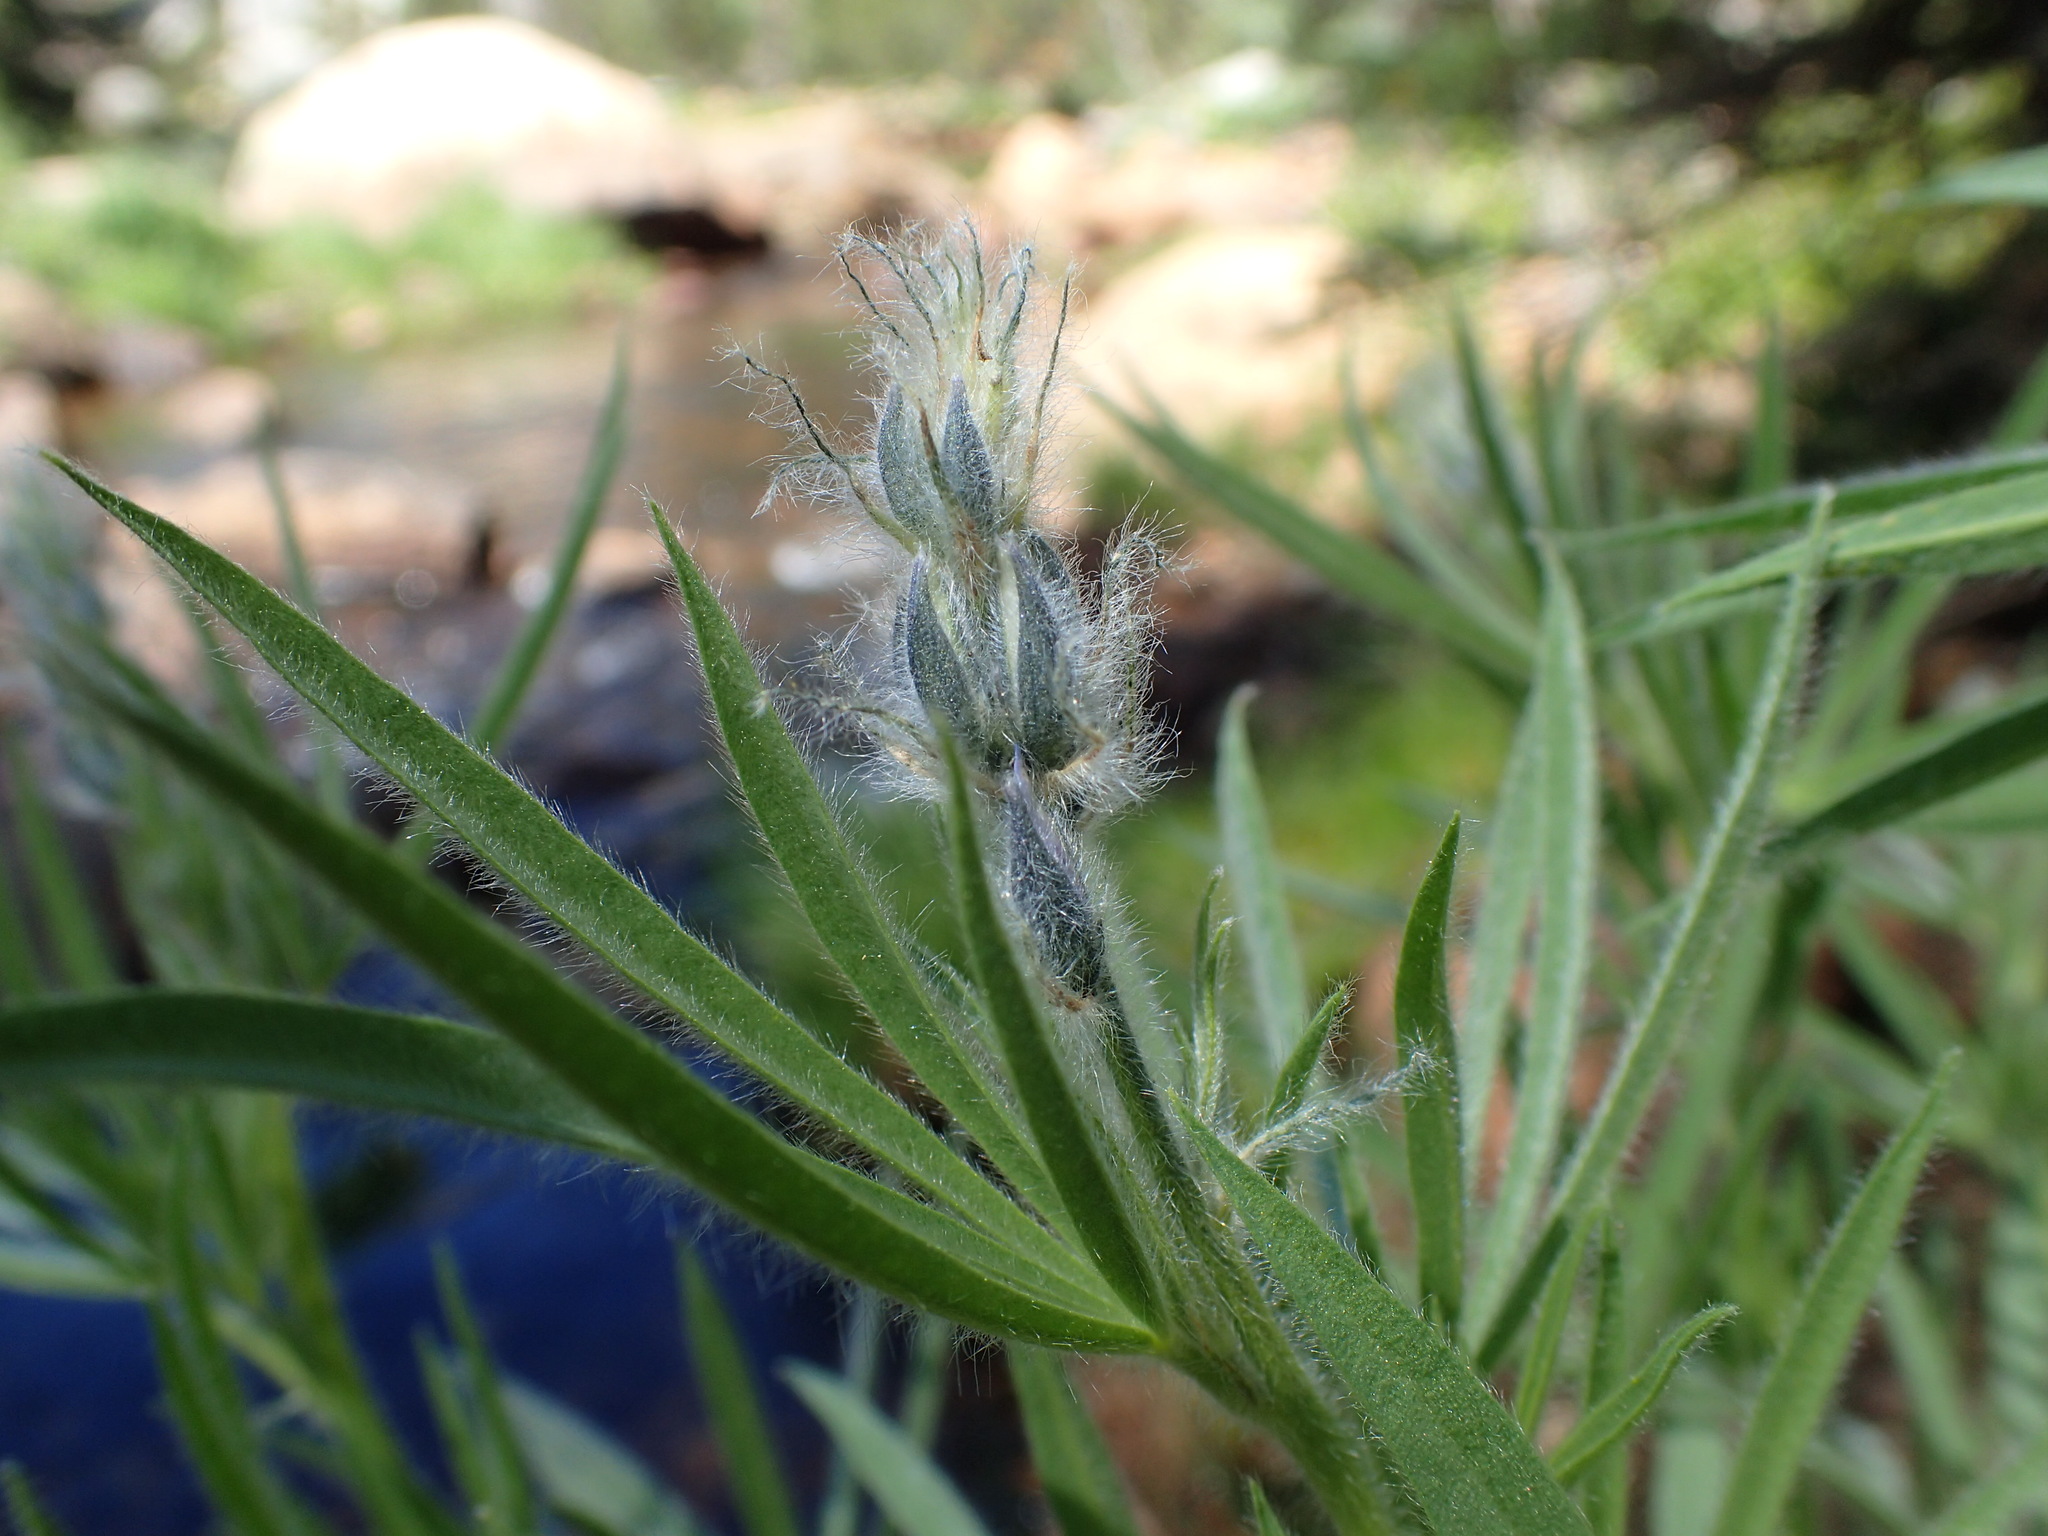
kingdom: Plantae
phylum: Tracheophyta
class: Magnoliopsida
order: Fabales
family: Fabaceae
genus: Lupinus
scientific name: Lupinus covillei
